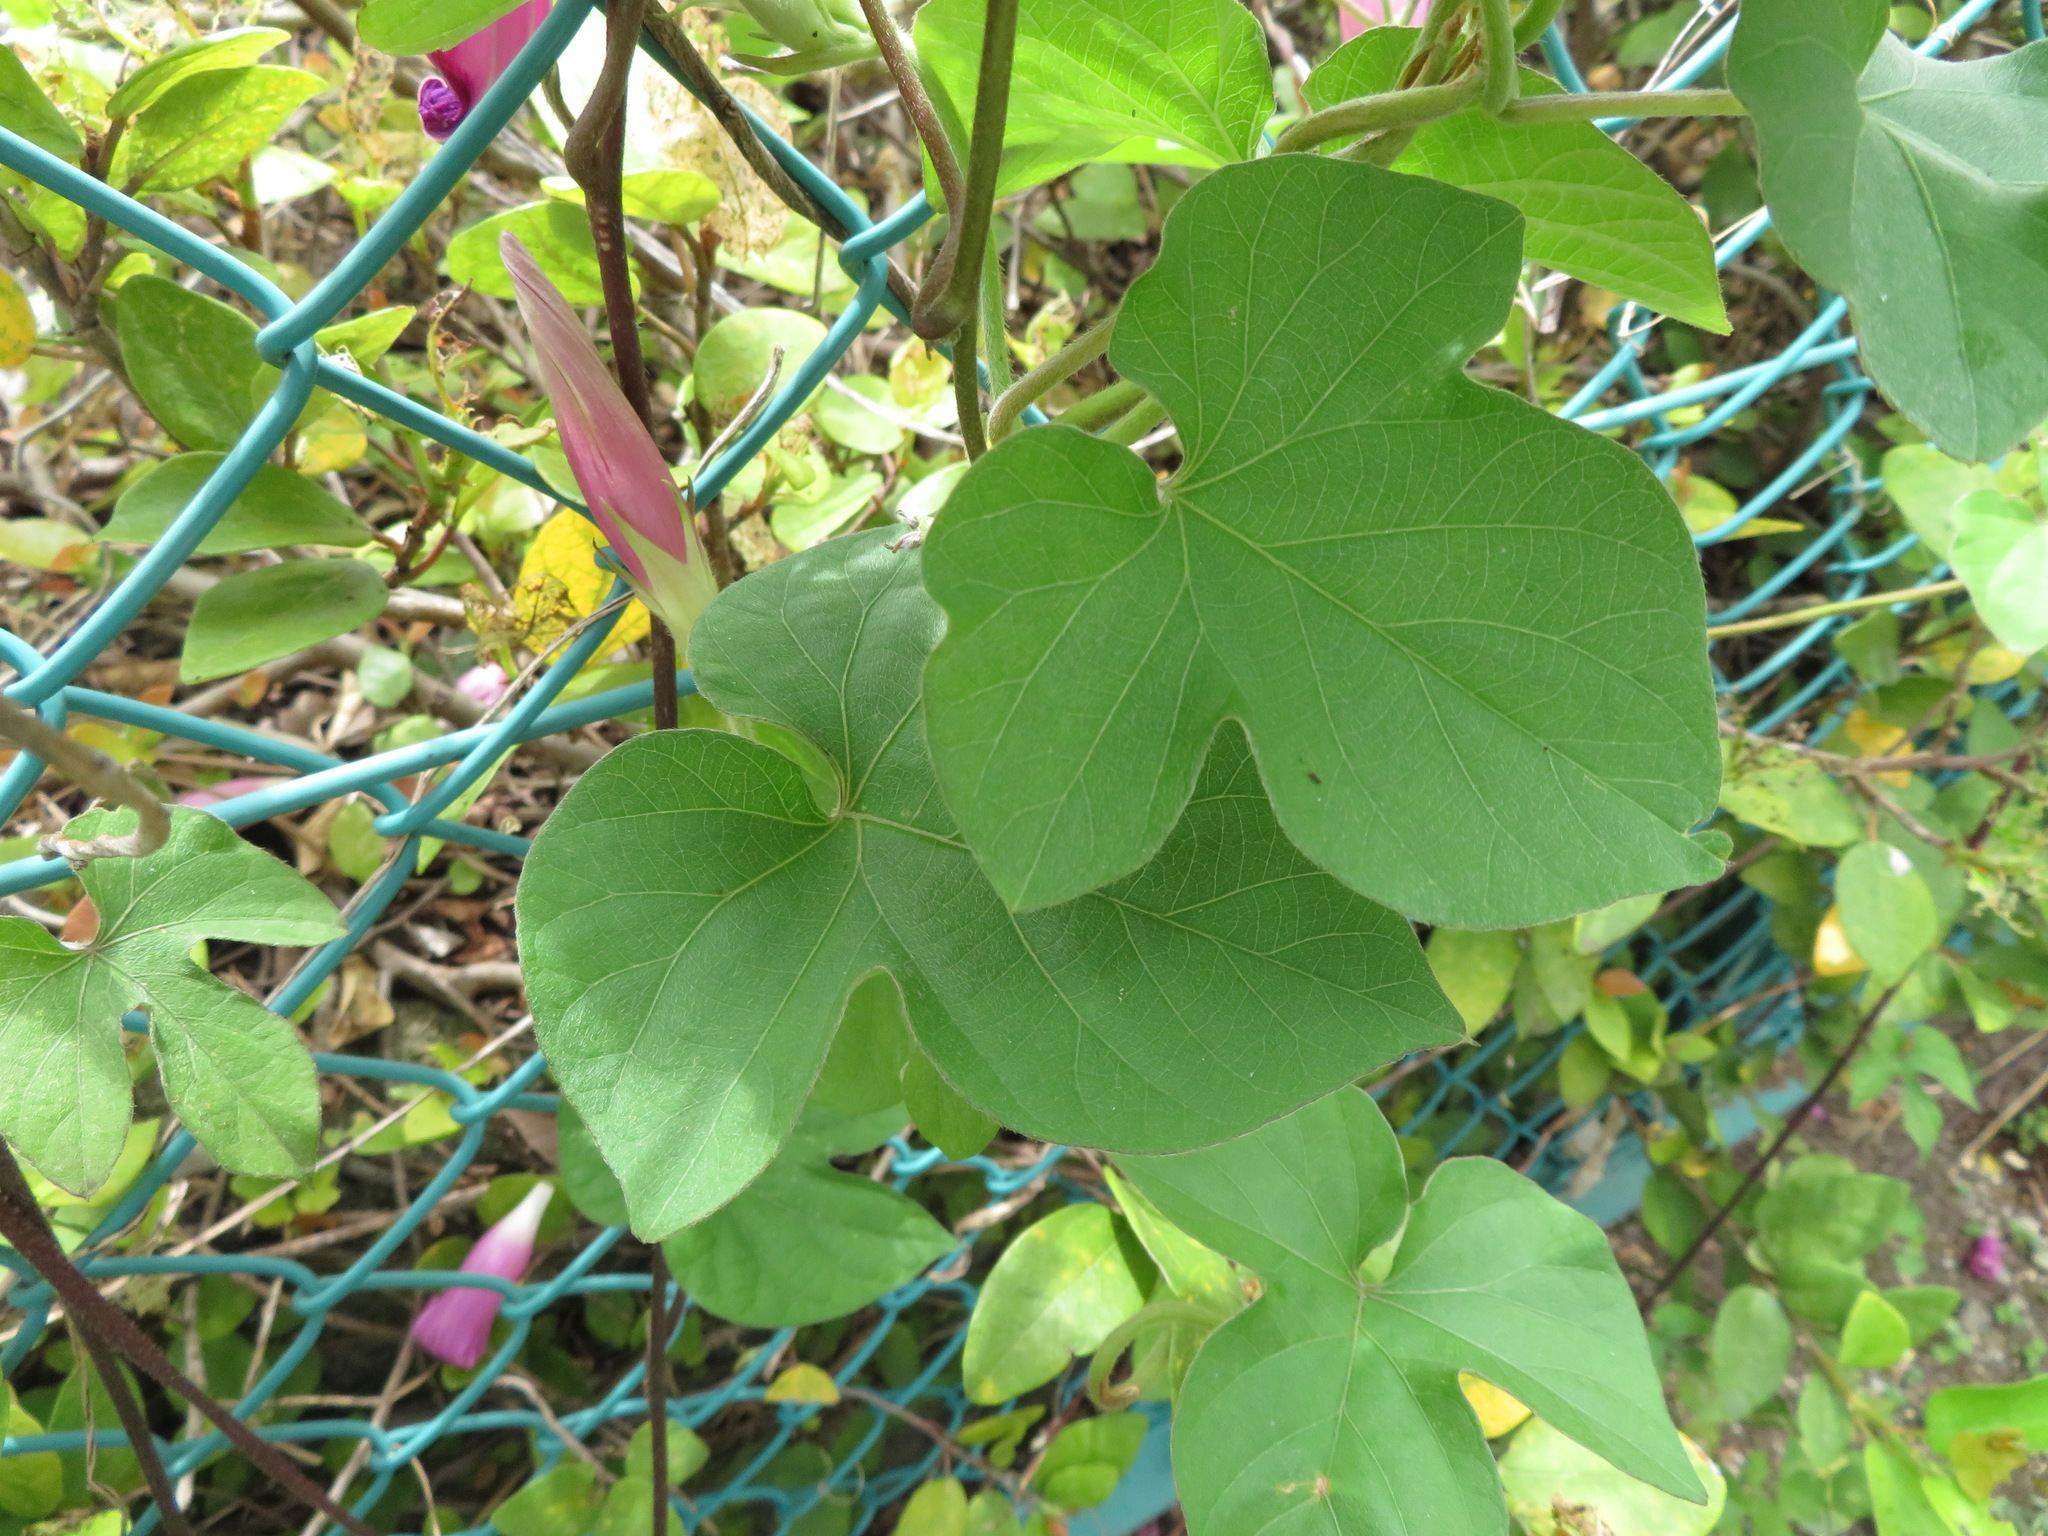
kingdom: Plantae
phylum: Tracheophyta
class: Magnoliopsida
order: Solanales
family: Convolvulaceae
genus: Ipomoea
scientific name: Ipomoea indica
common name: Blue dawnflower
